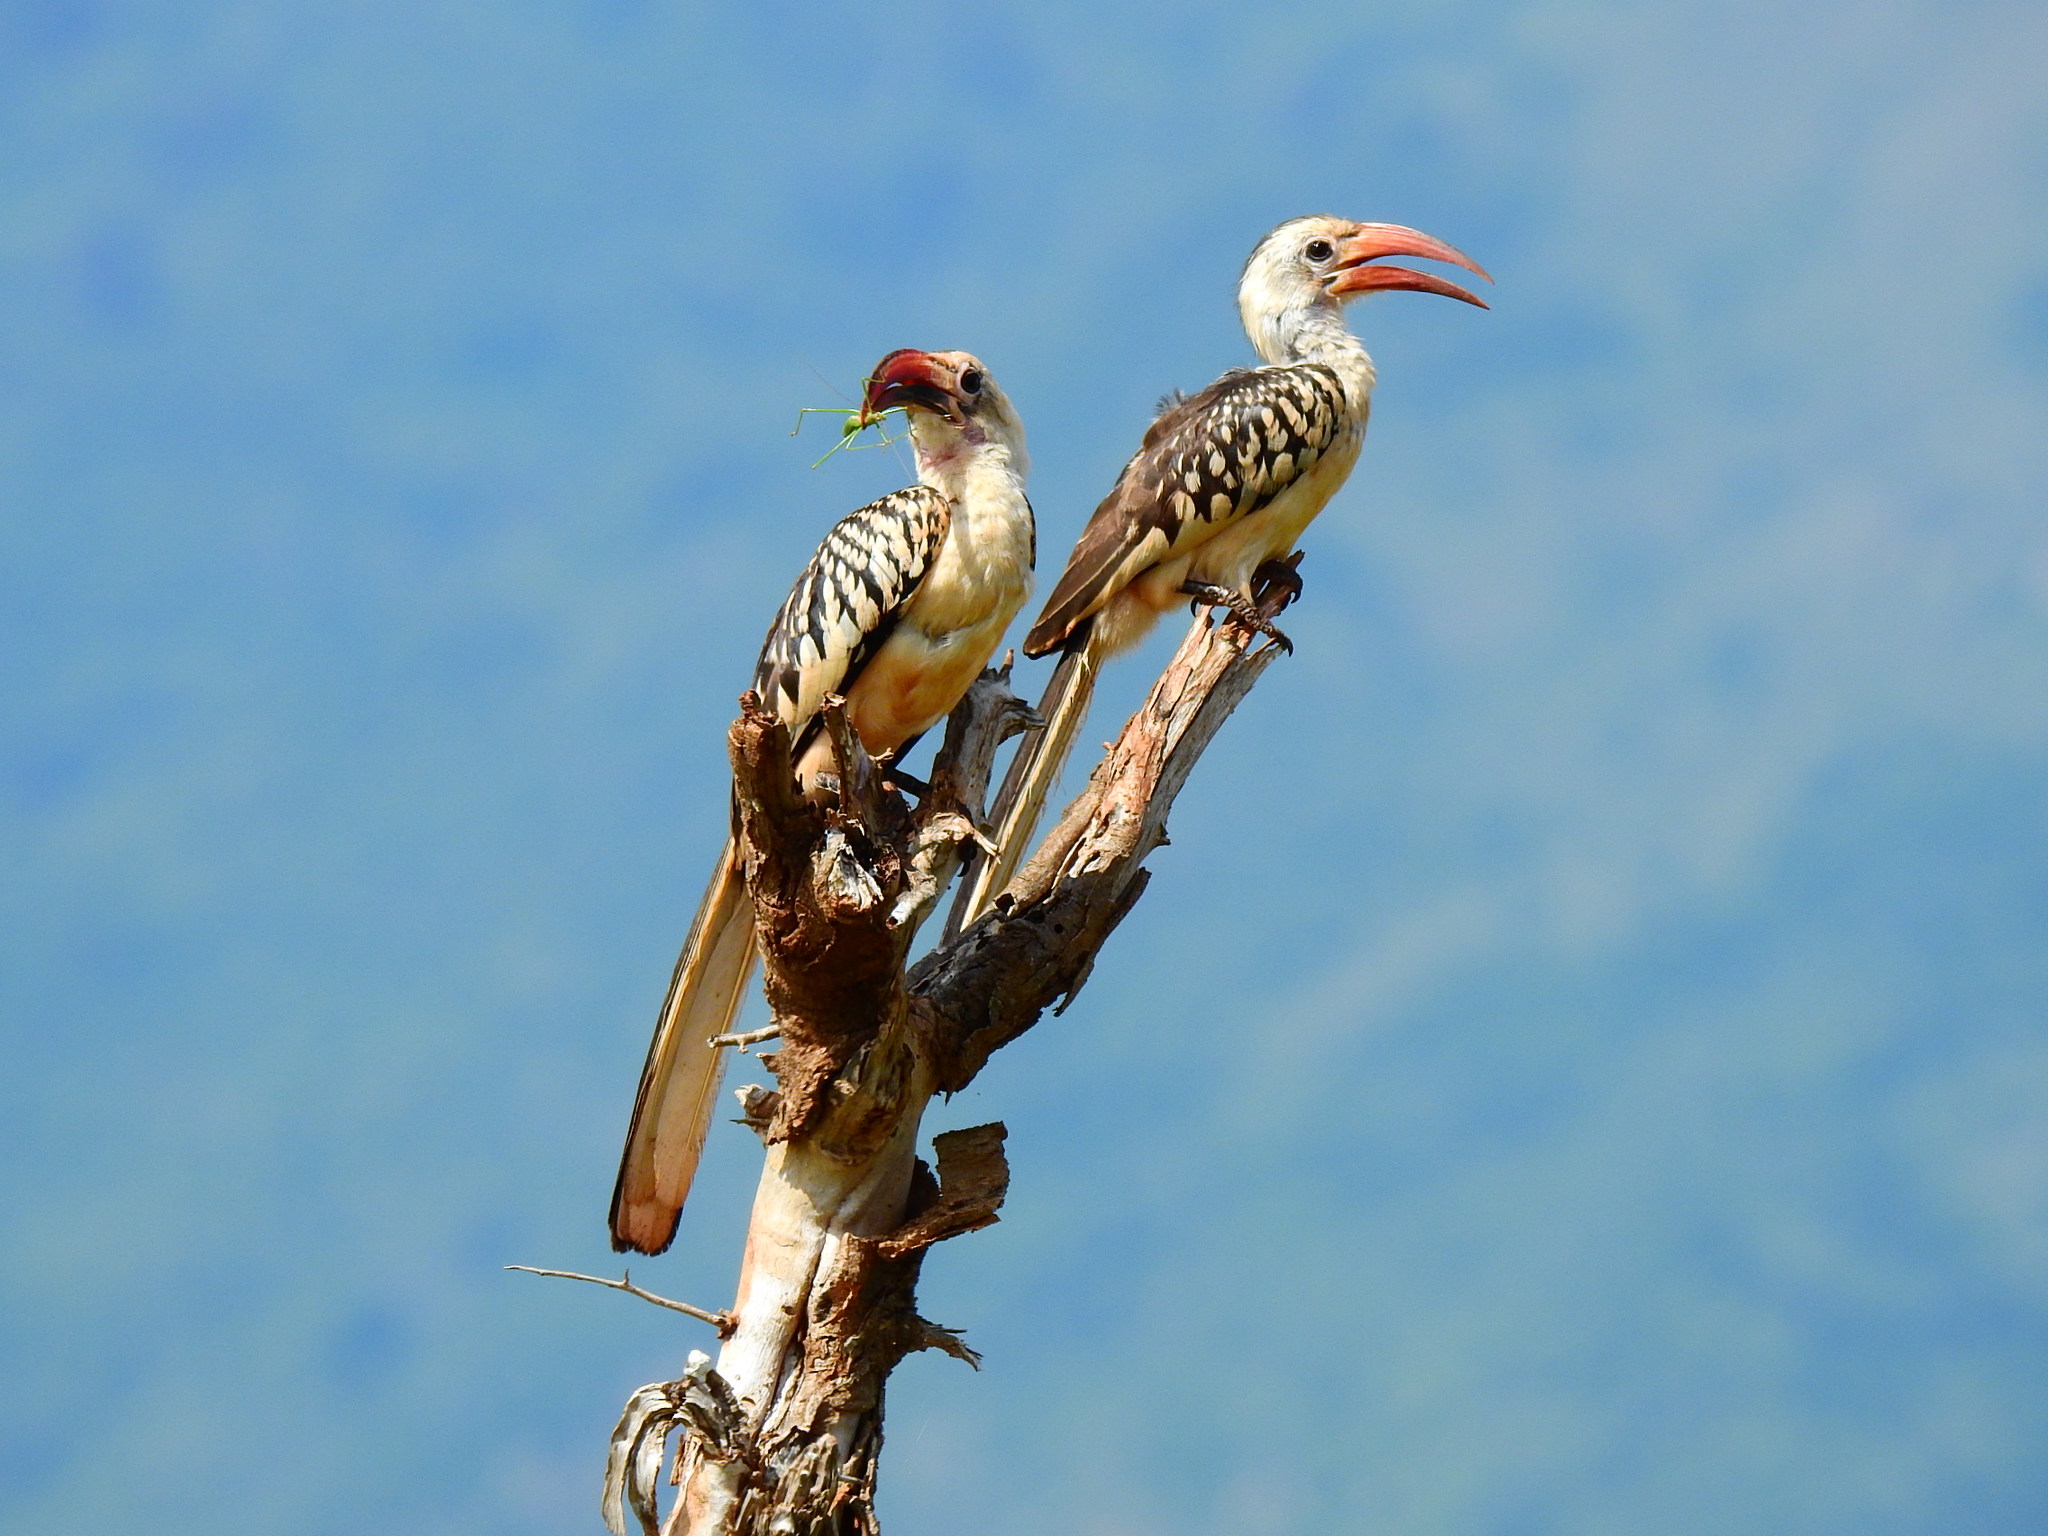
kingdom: Animalia
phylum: Chordata
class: Aves
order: Bucerotiformes
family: Bucerotidae
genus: Tockus
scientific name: Tockus erythrorhynchus
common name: Northern red-billed hornbill
